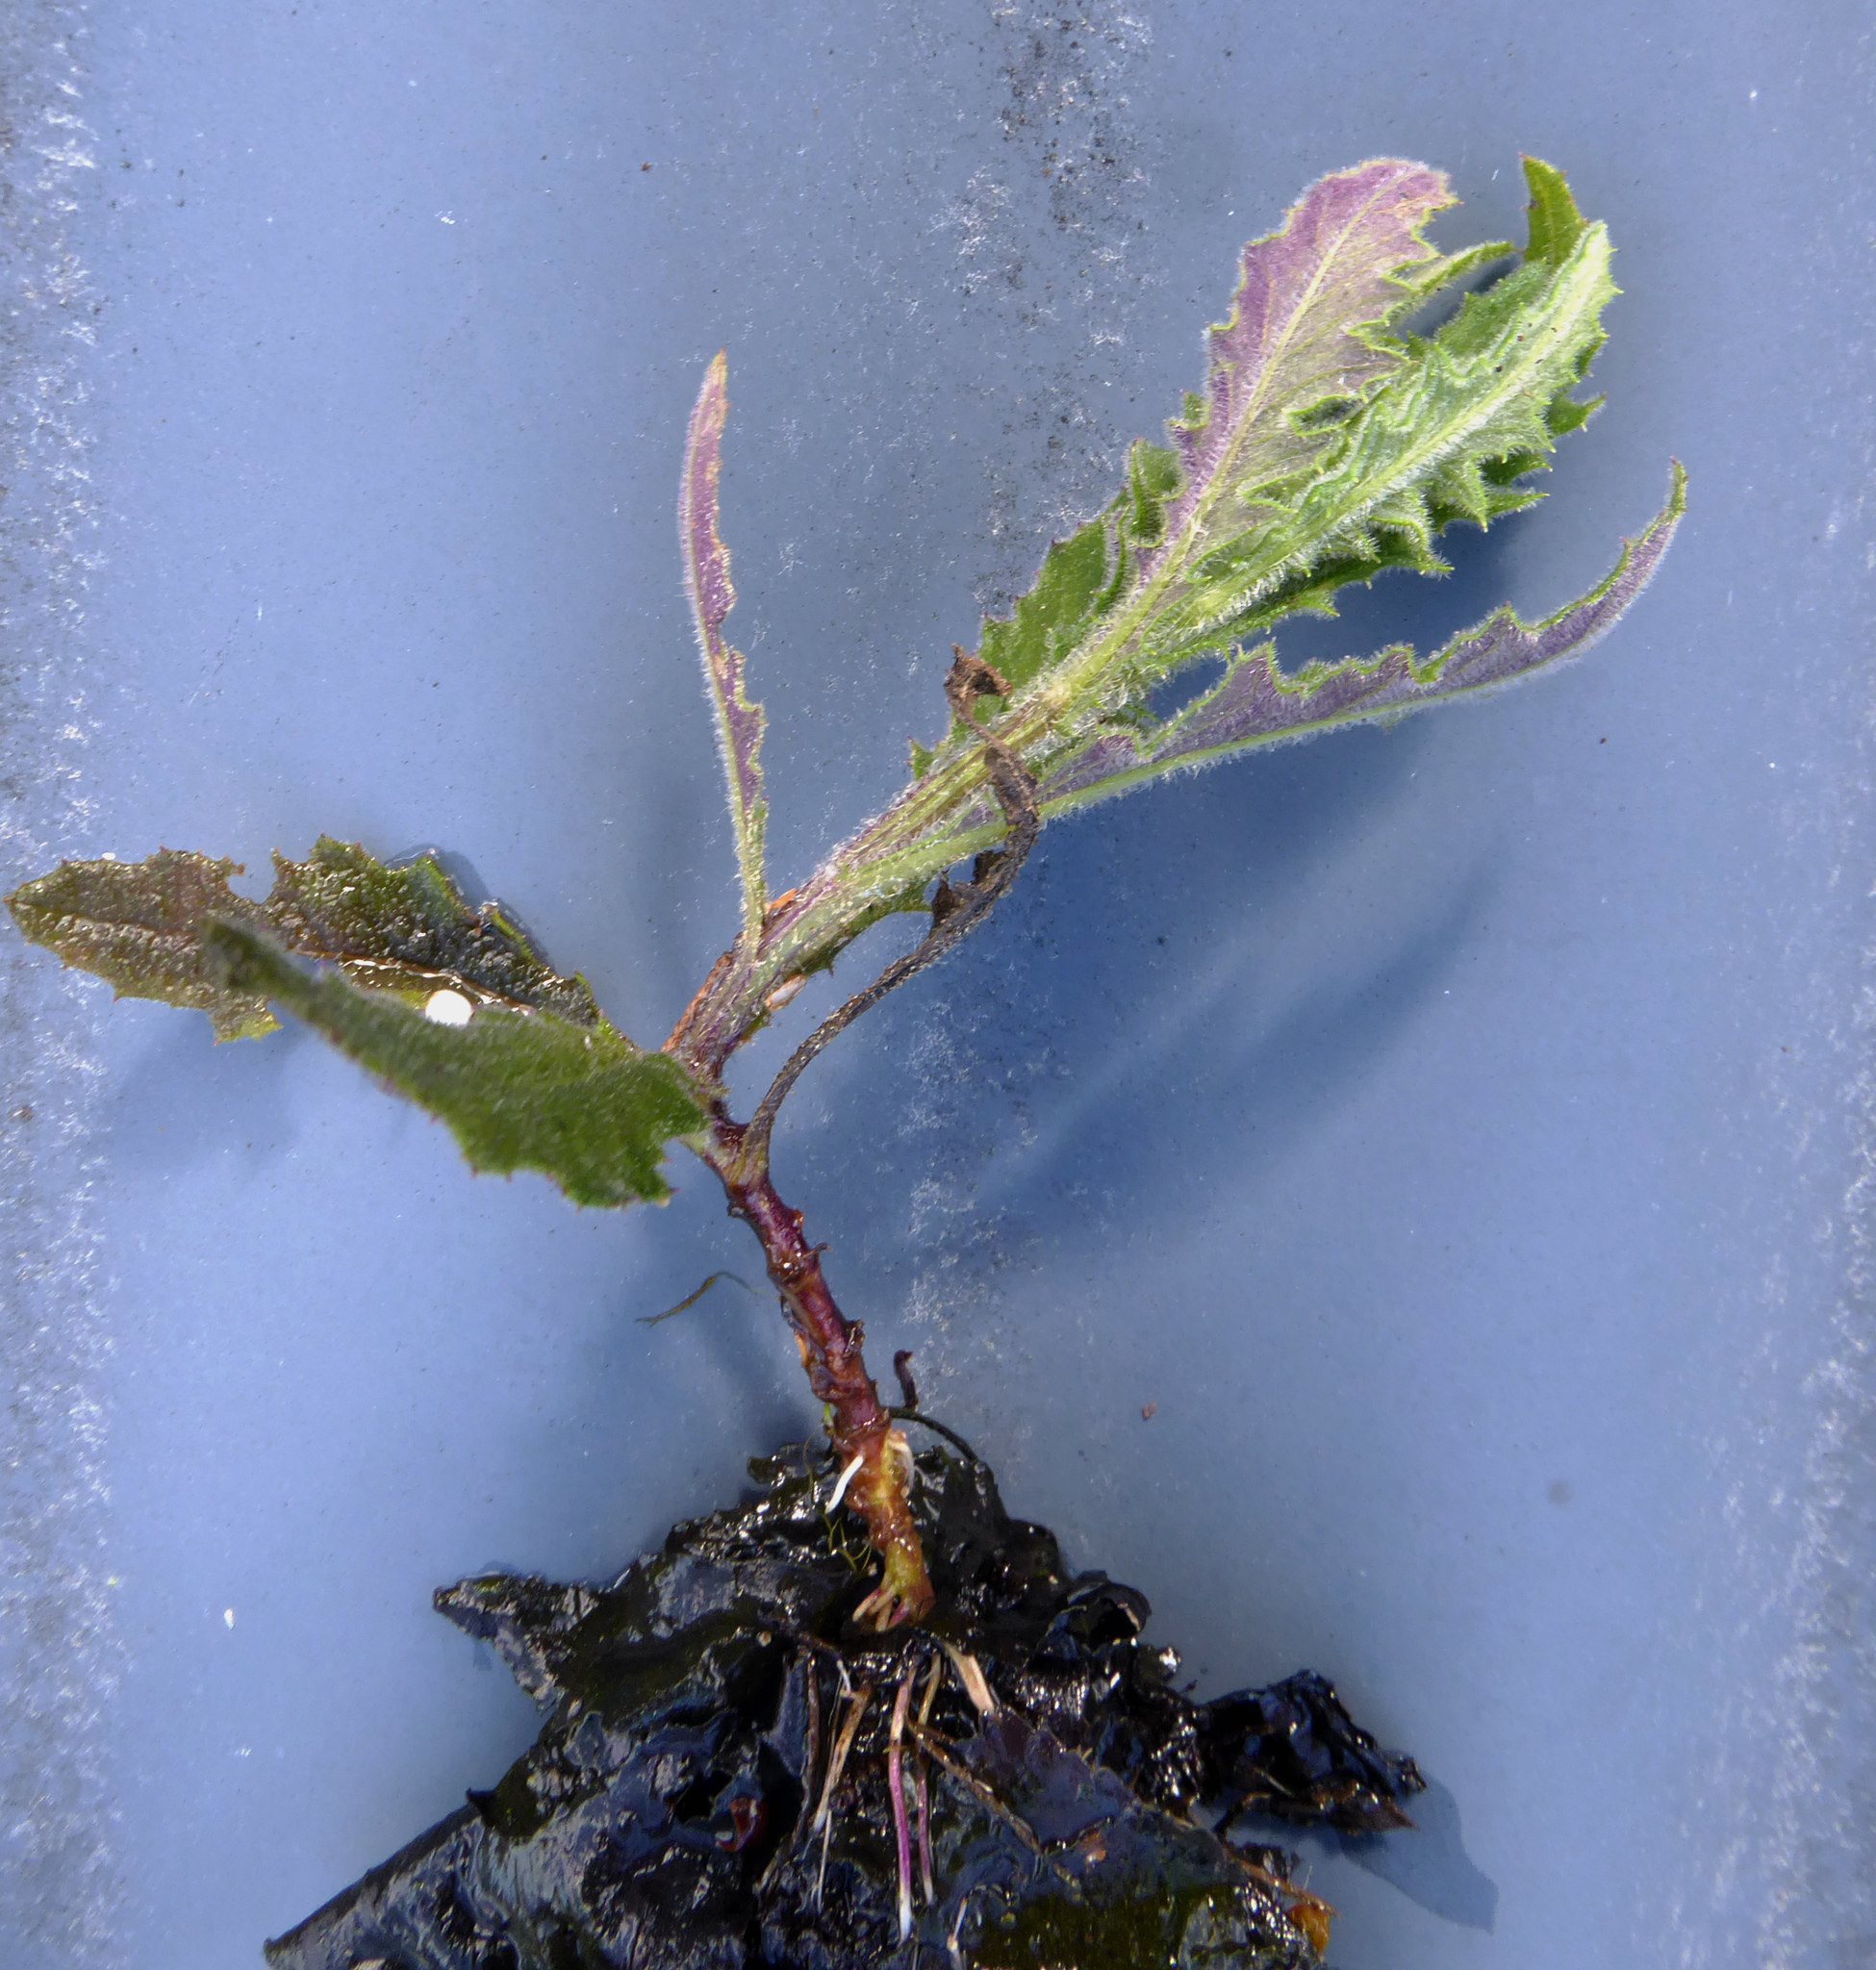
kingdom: Plantae
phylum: Tracheophyta
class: Magnoliopsida
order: Asterales
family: Asteraceae
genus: Senecio
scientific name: Senecio scaberulus
